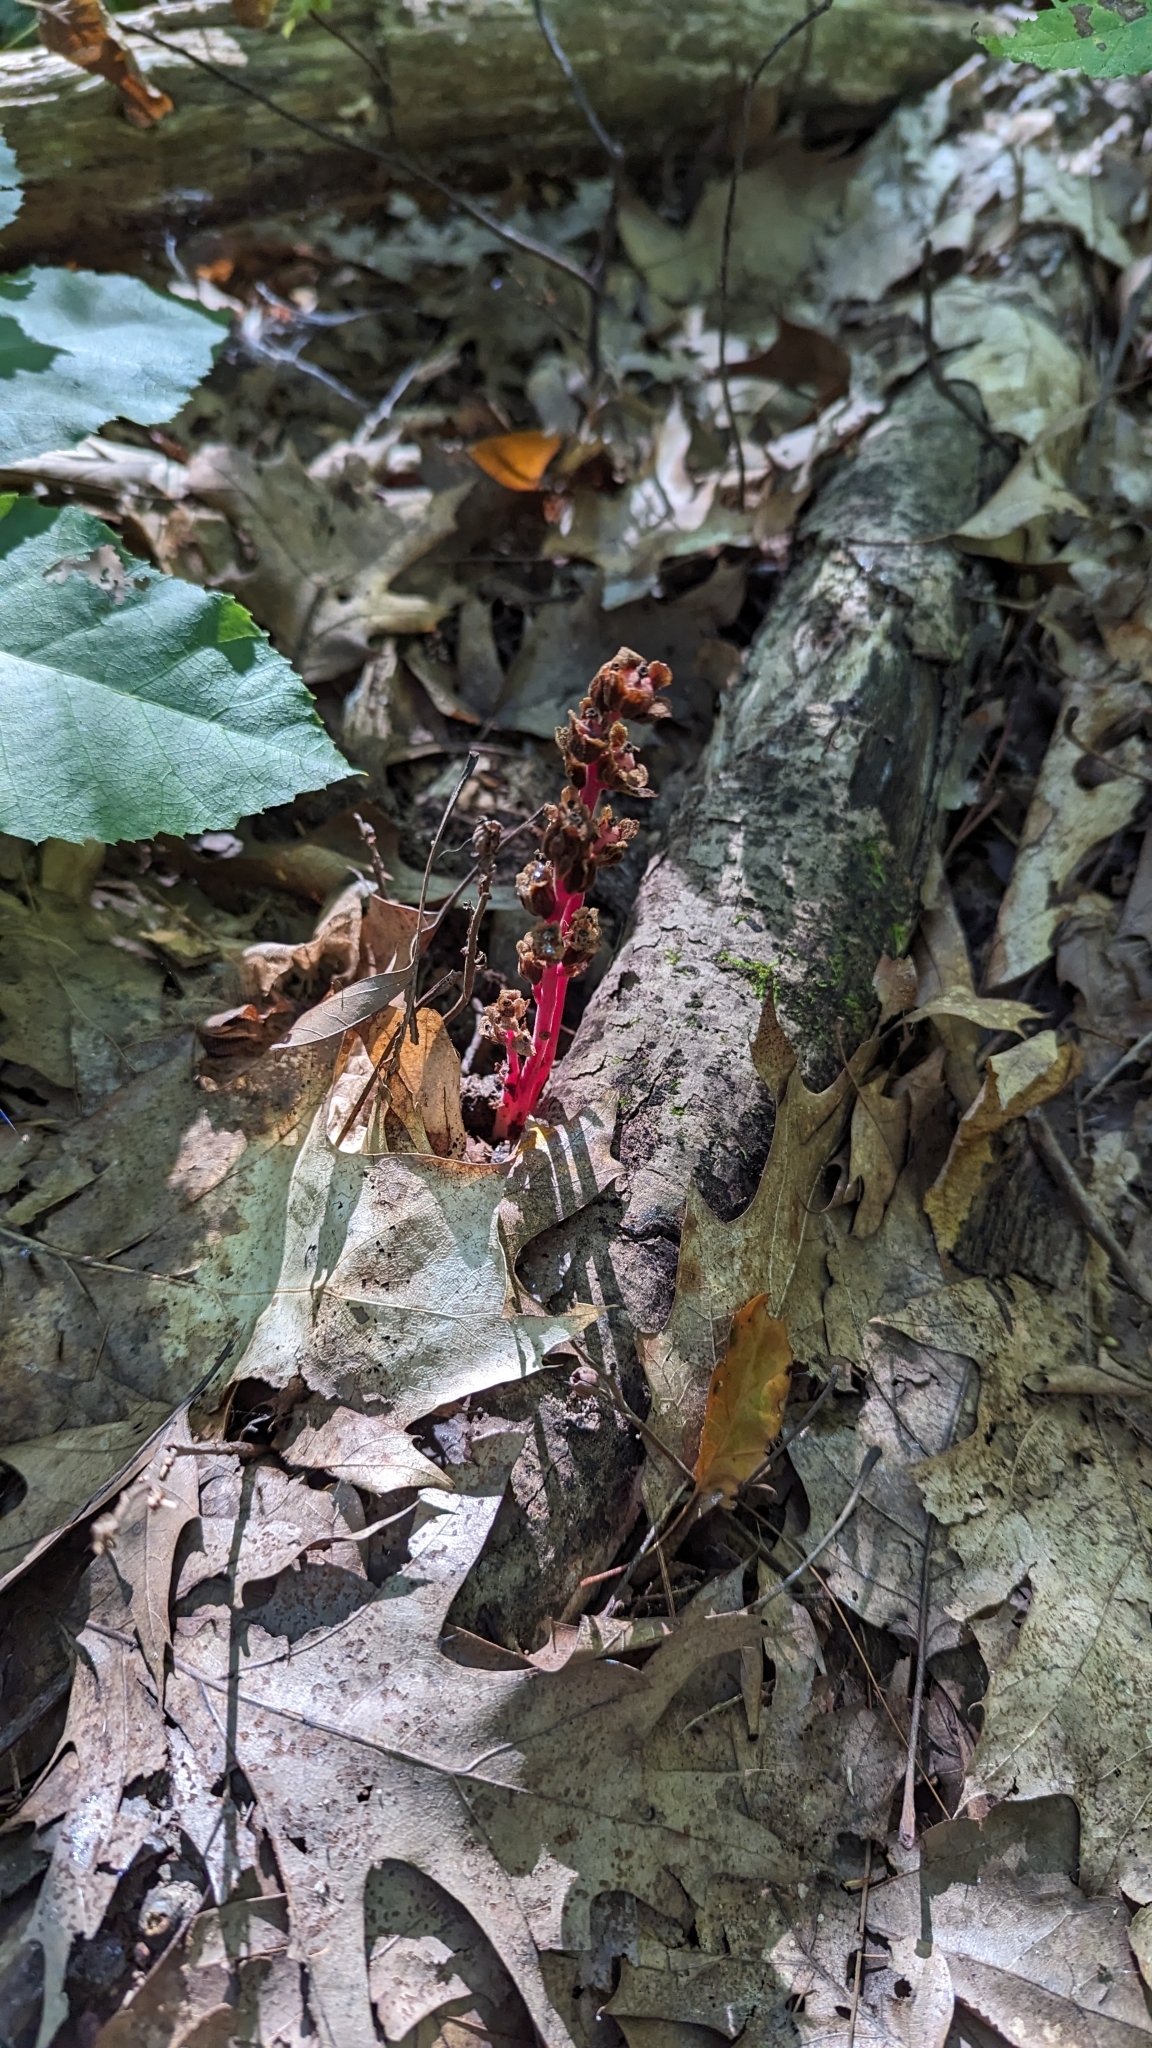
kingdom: Plantae
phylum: Tracheophyta
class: Magnoliopsida
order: Ericales
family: Ericaceae
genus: Hypopitys
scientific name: Hypopitys monotropa
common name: Yellow bird's-nest
